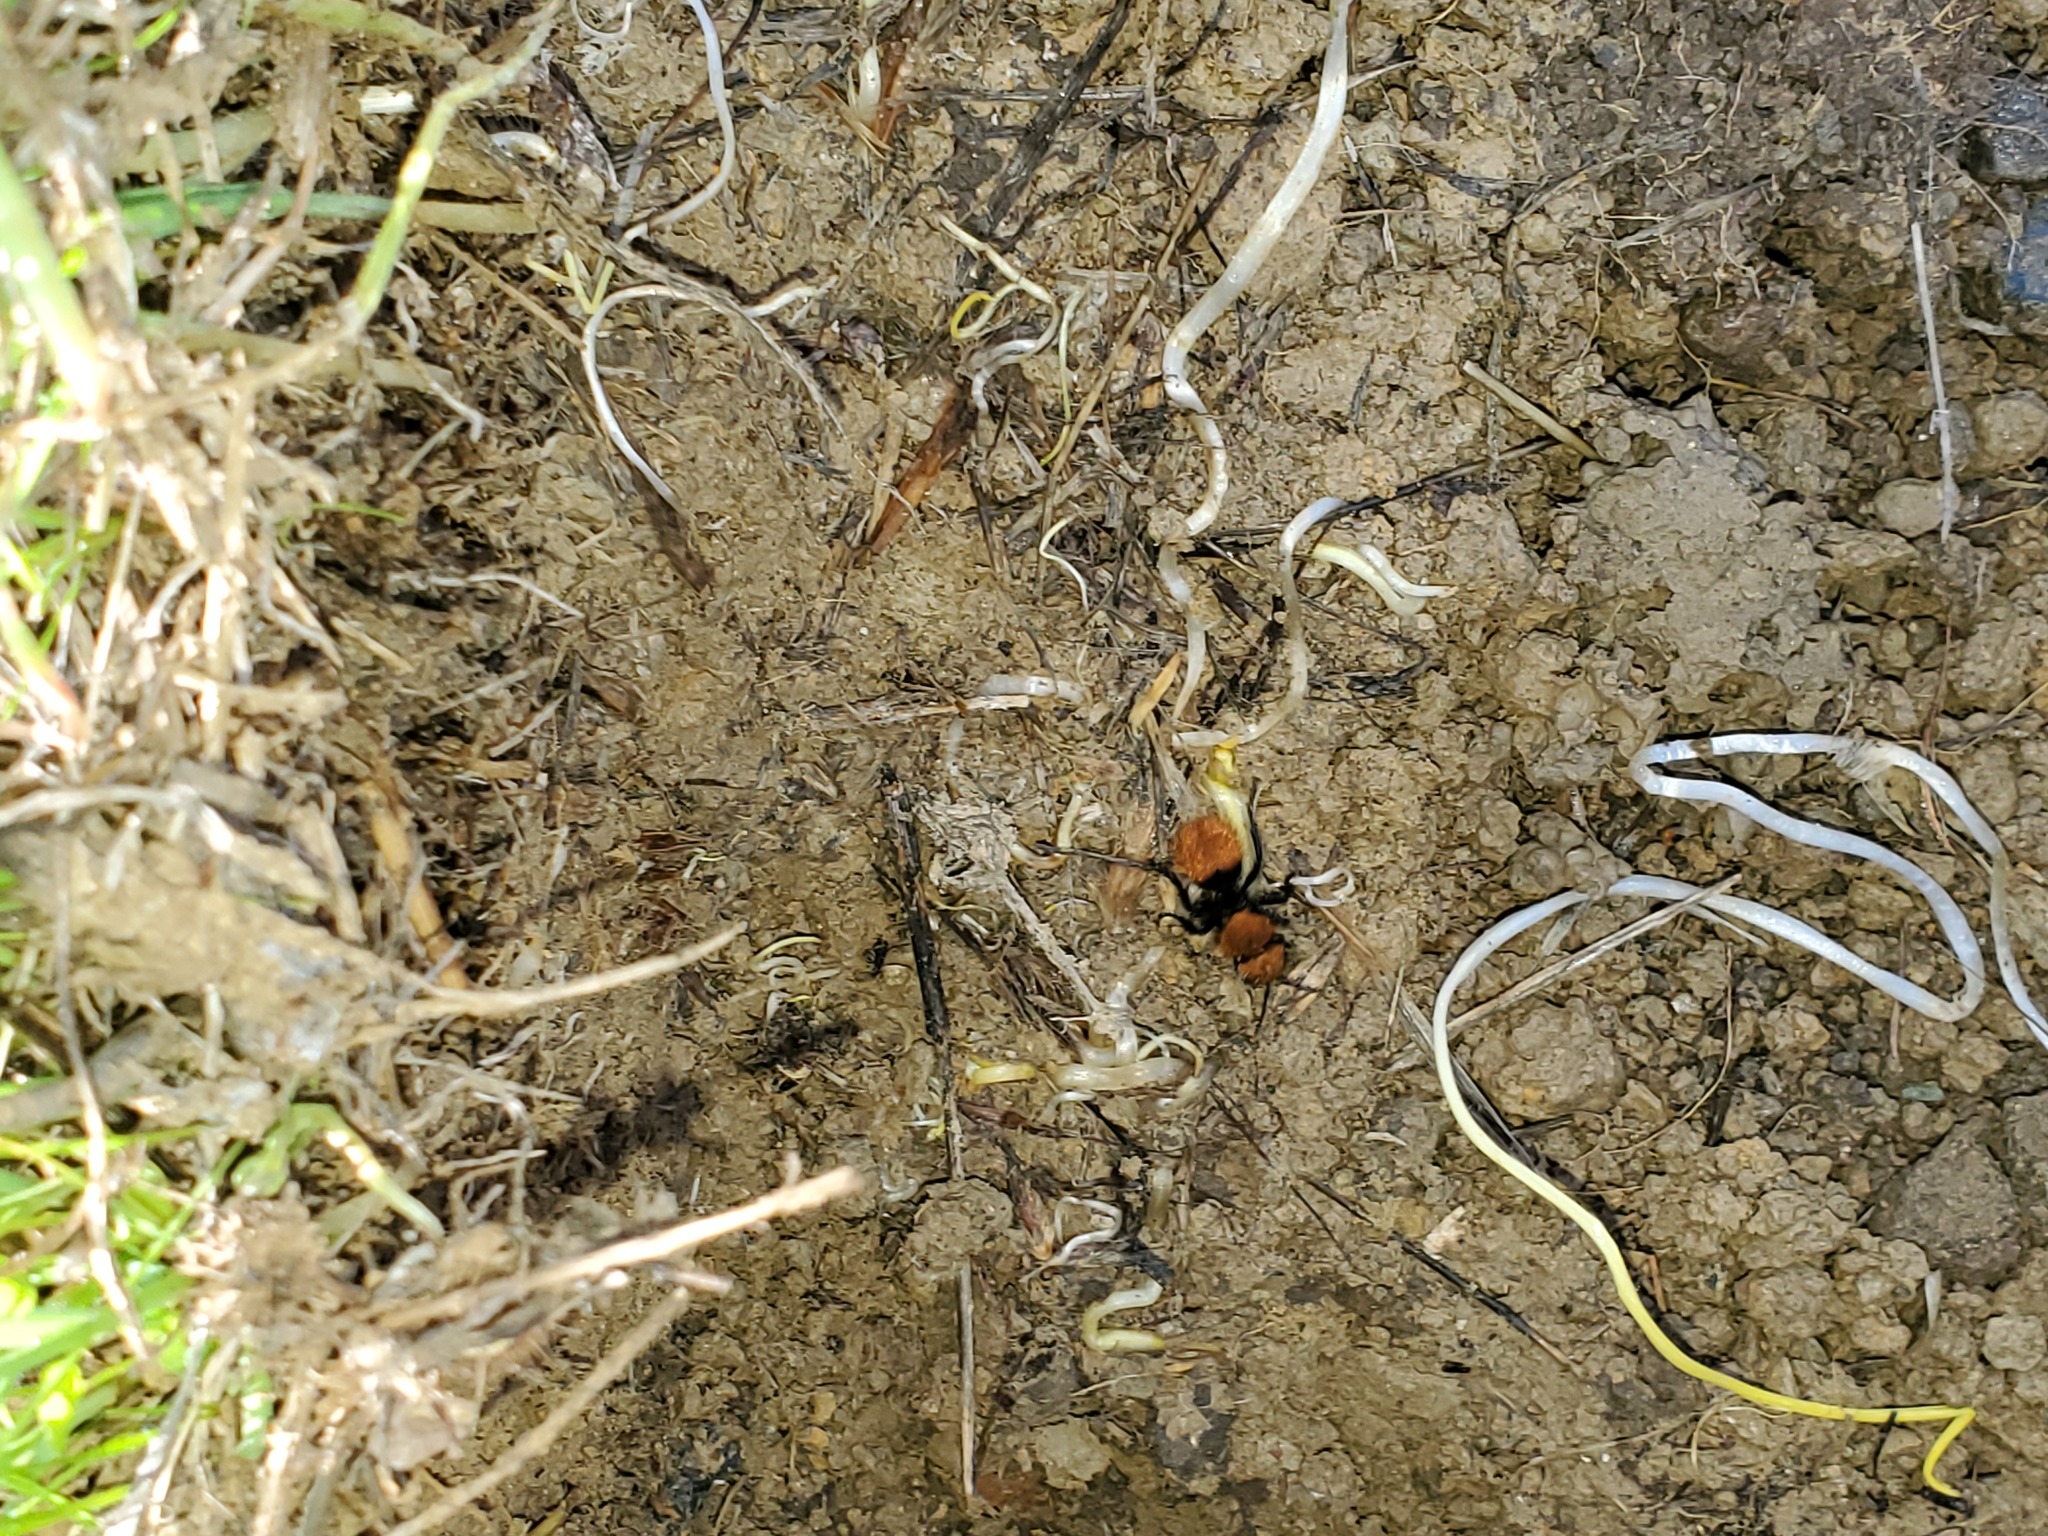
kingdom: Animalia
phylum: Arthropoda
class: Insecta
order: Hymenoptera
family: Mutillidae
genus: Dasymutilla
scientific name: Dasymutilla
